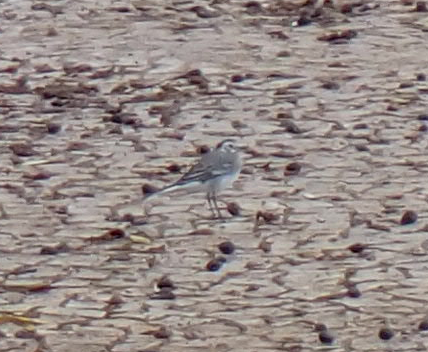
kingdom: Animalia
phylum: Chordata
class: Aves
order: Passeriformes
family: Motacillidae
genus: Motacilla
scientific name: Motacilla alba
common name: White wagtail
